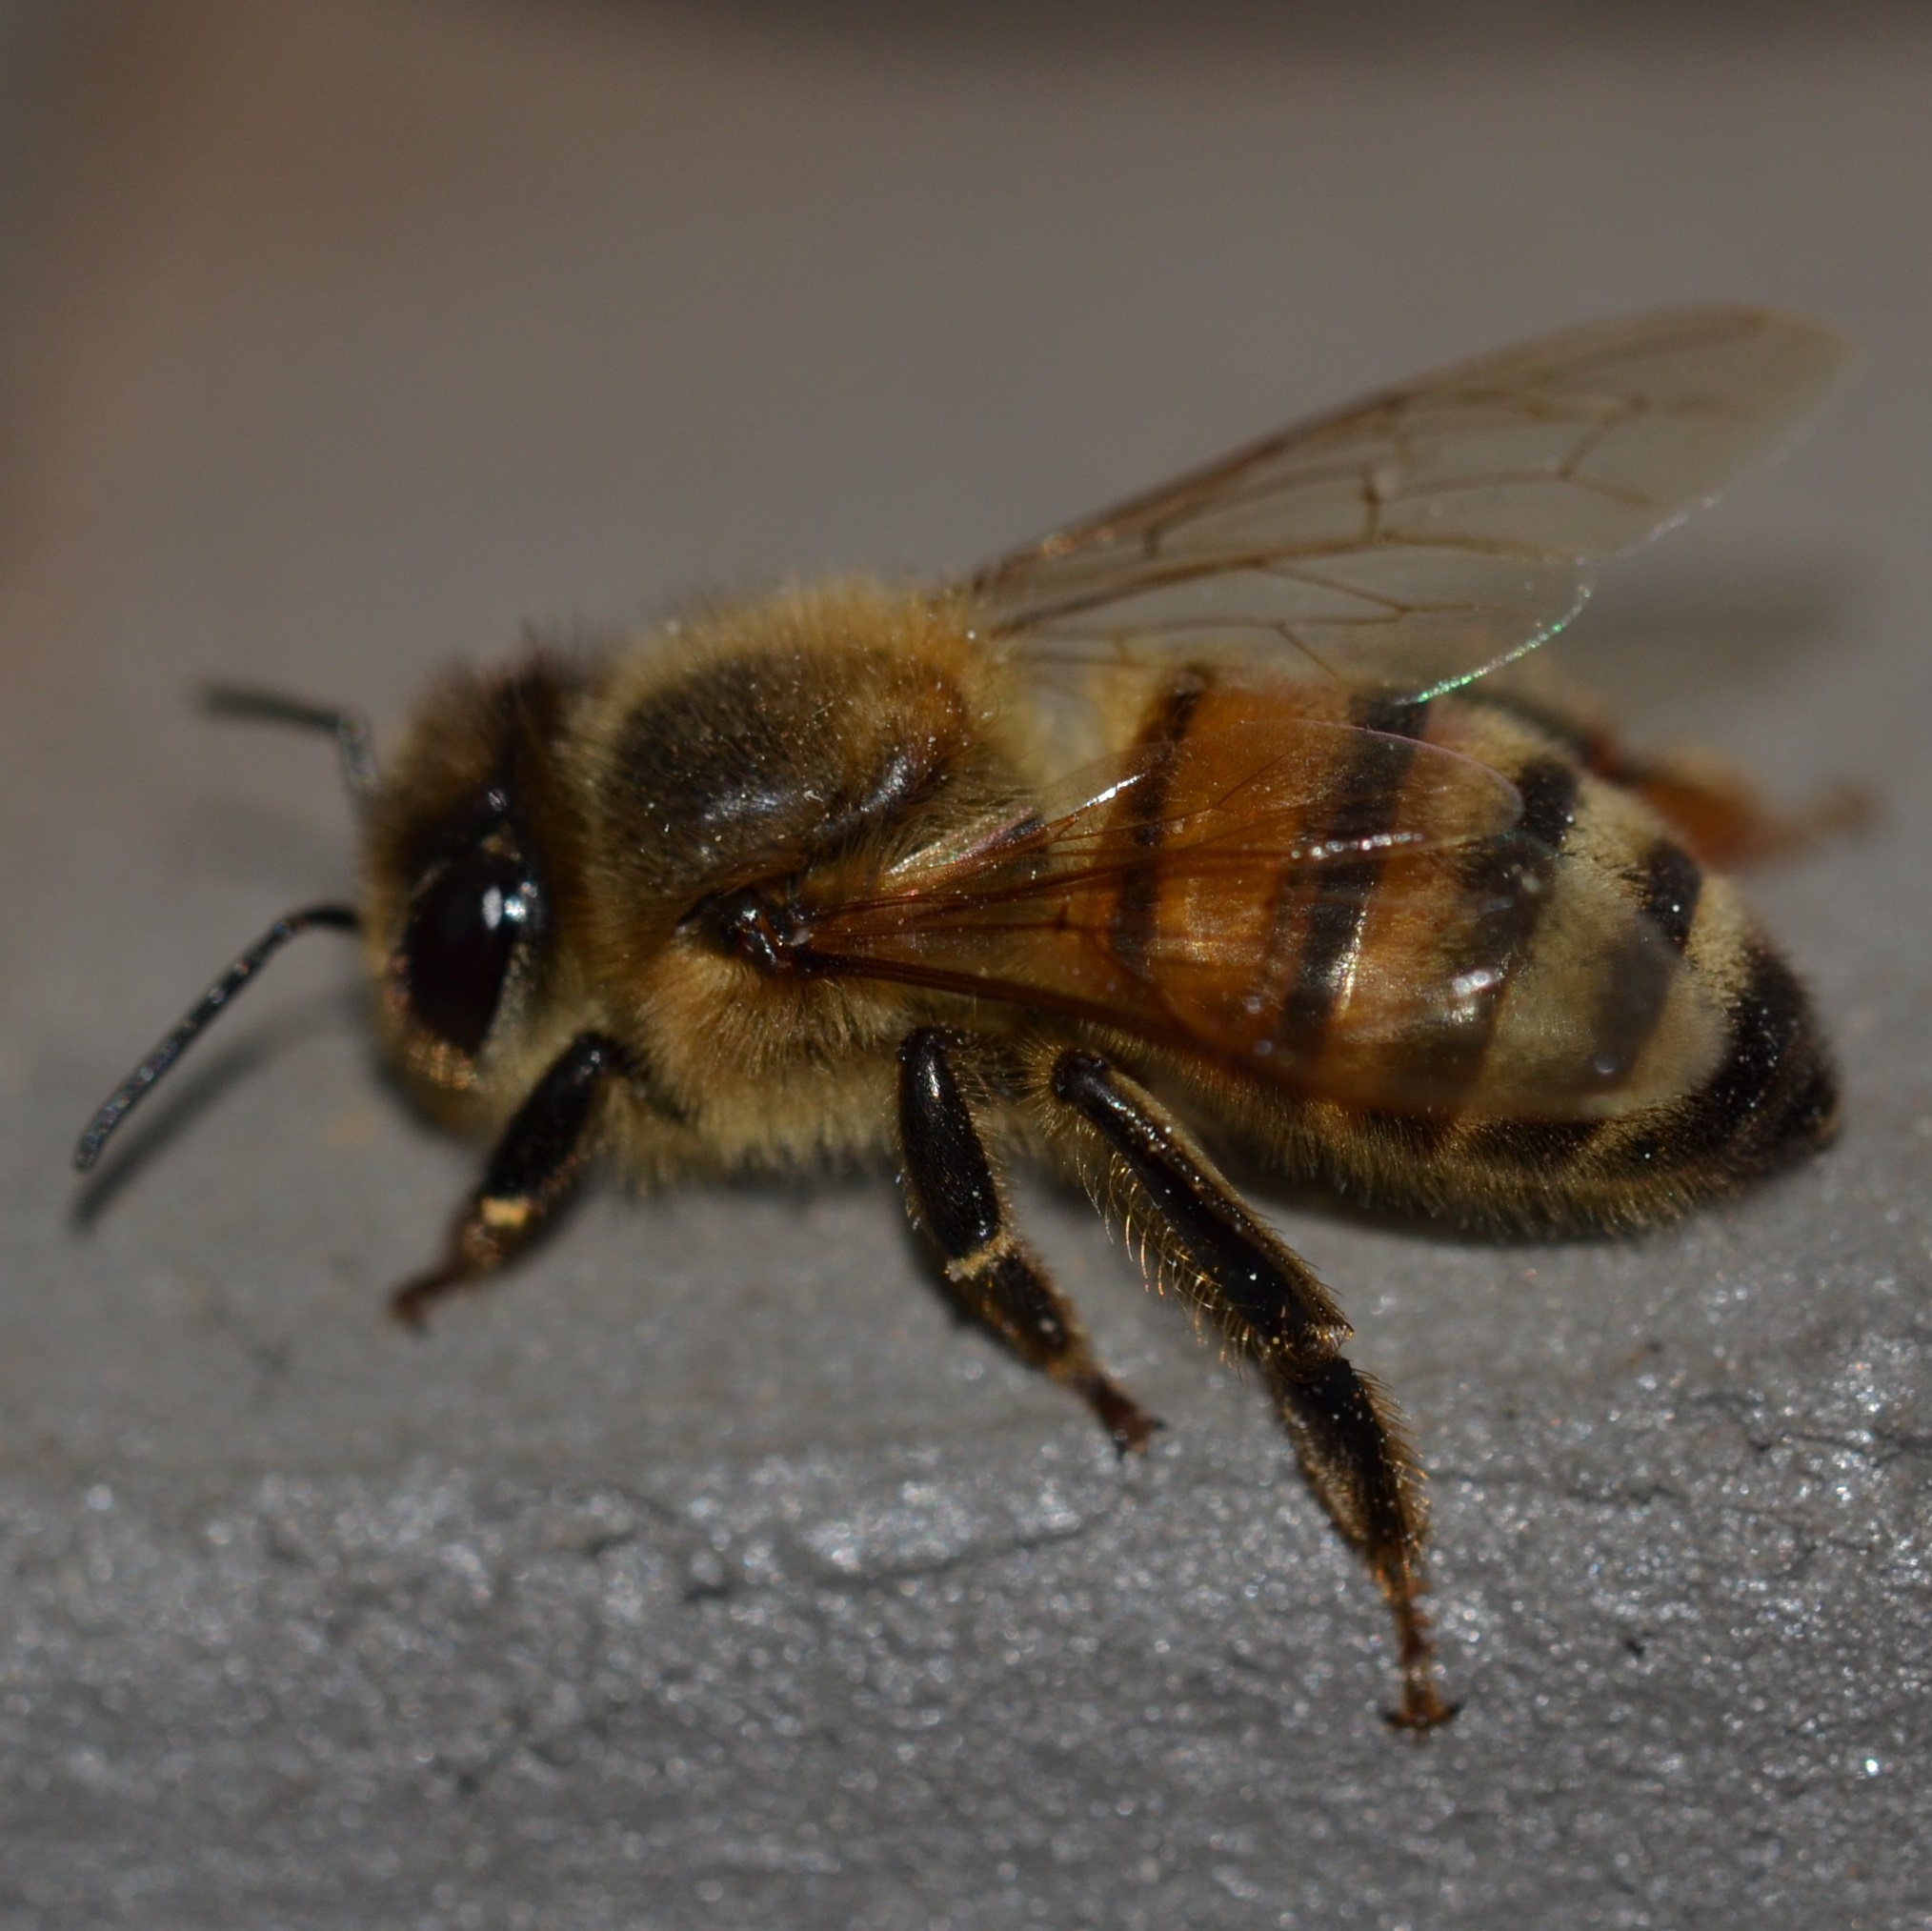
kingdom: Animalia
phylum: Arthropoda
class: Insecta
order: Hymenoptera
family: Apidae
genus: Apis
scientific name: Apis mellifera
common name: Honey bee
